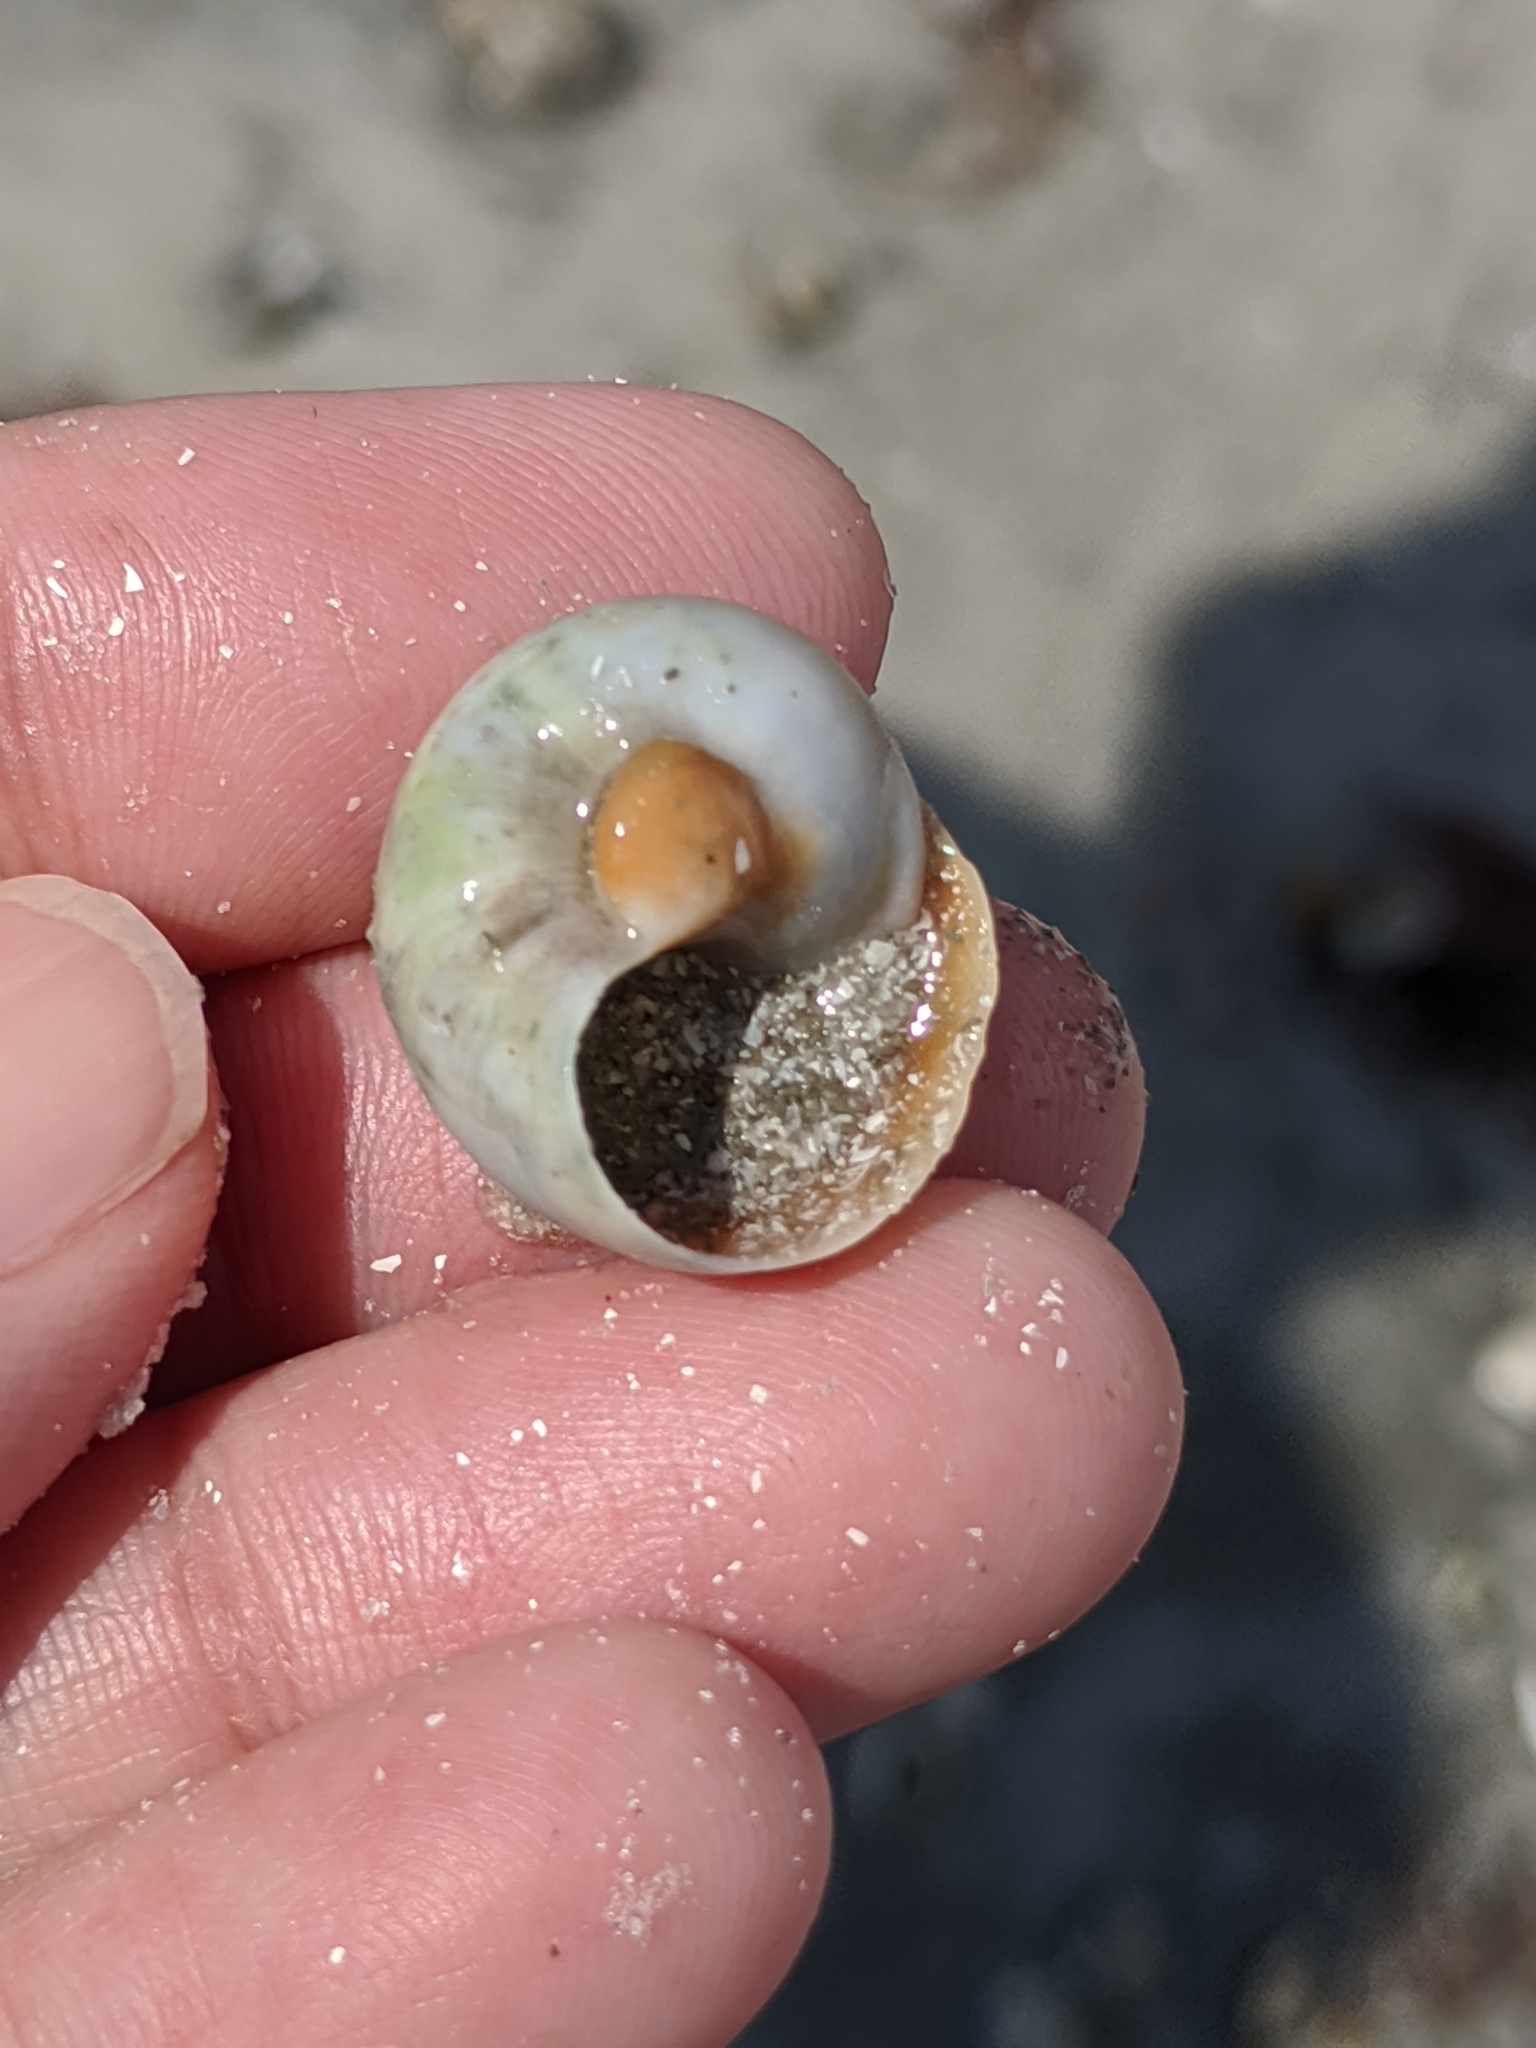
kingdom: Animalia
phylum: Mollusca
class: Gastropoda
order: Littorinimorpha
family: Naticidae
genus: Neverita
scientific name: Neverita duplicata
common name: Lobed moonsnail
